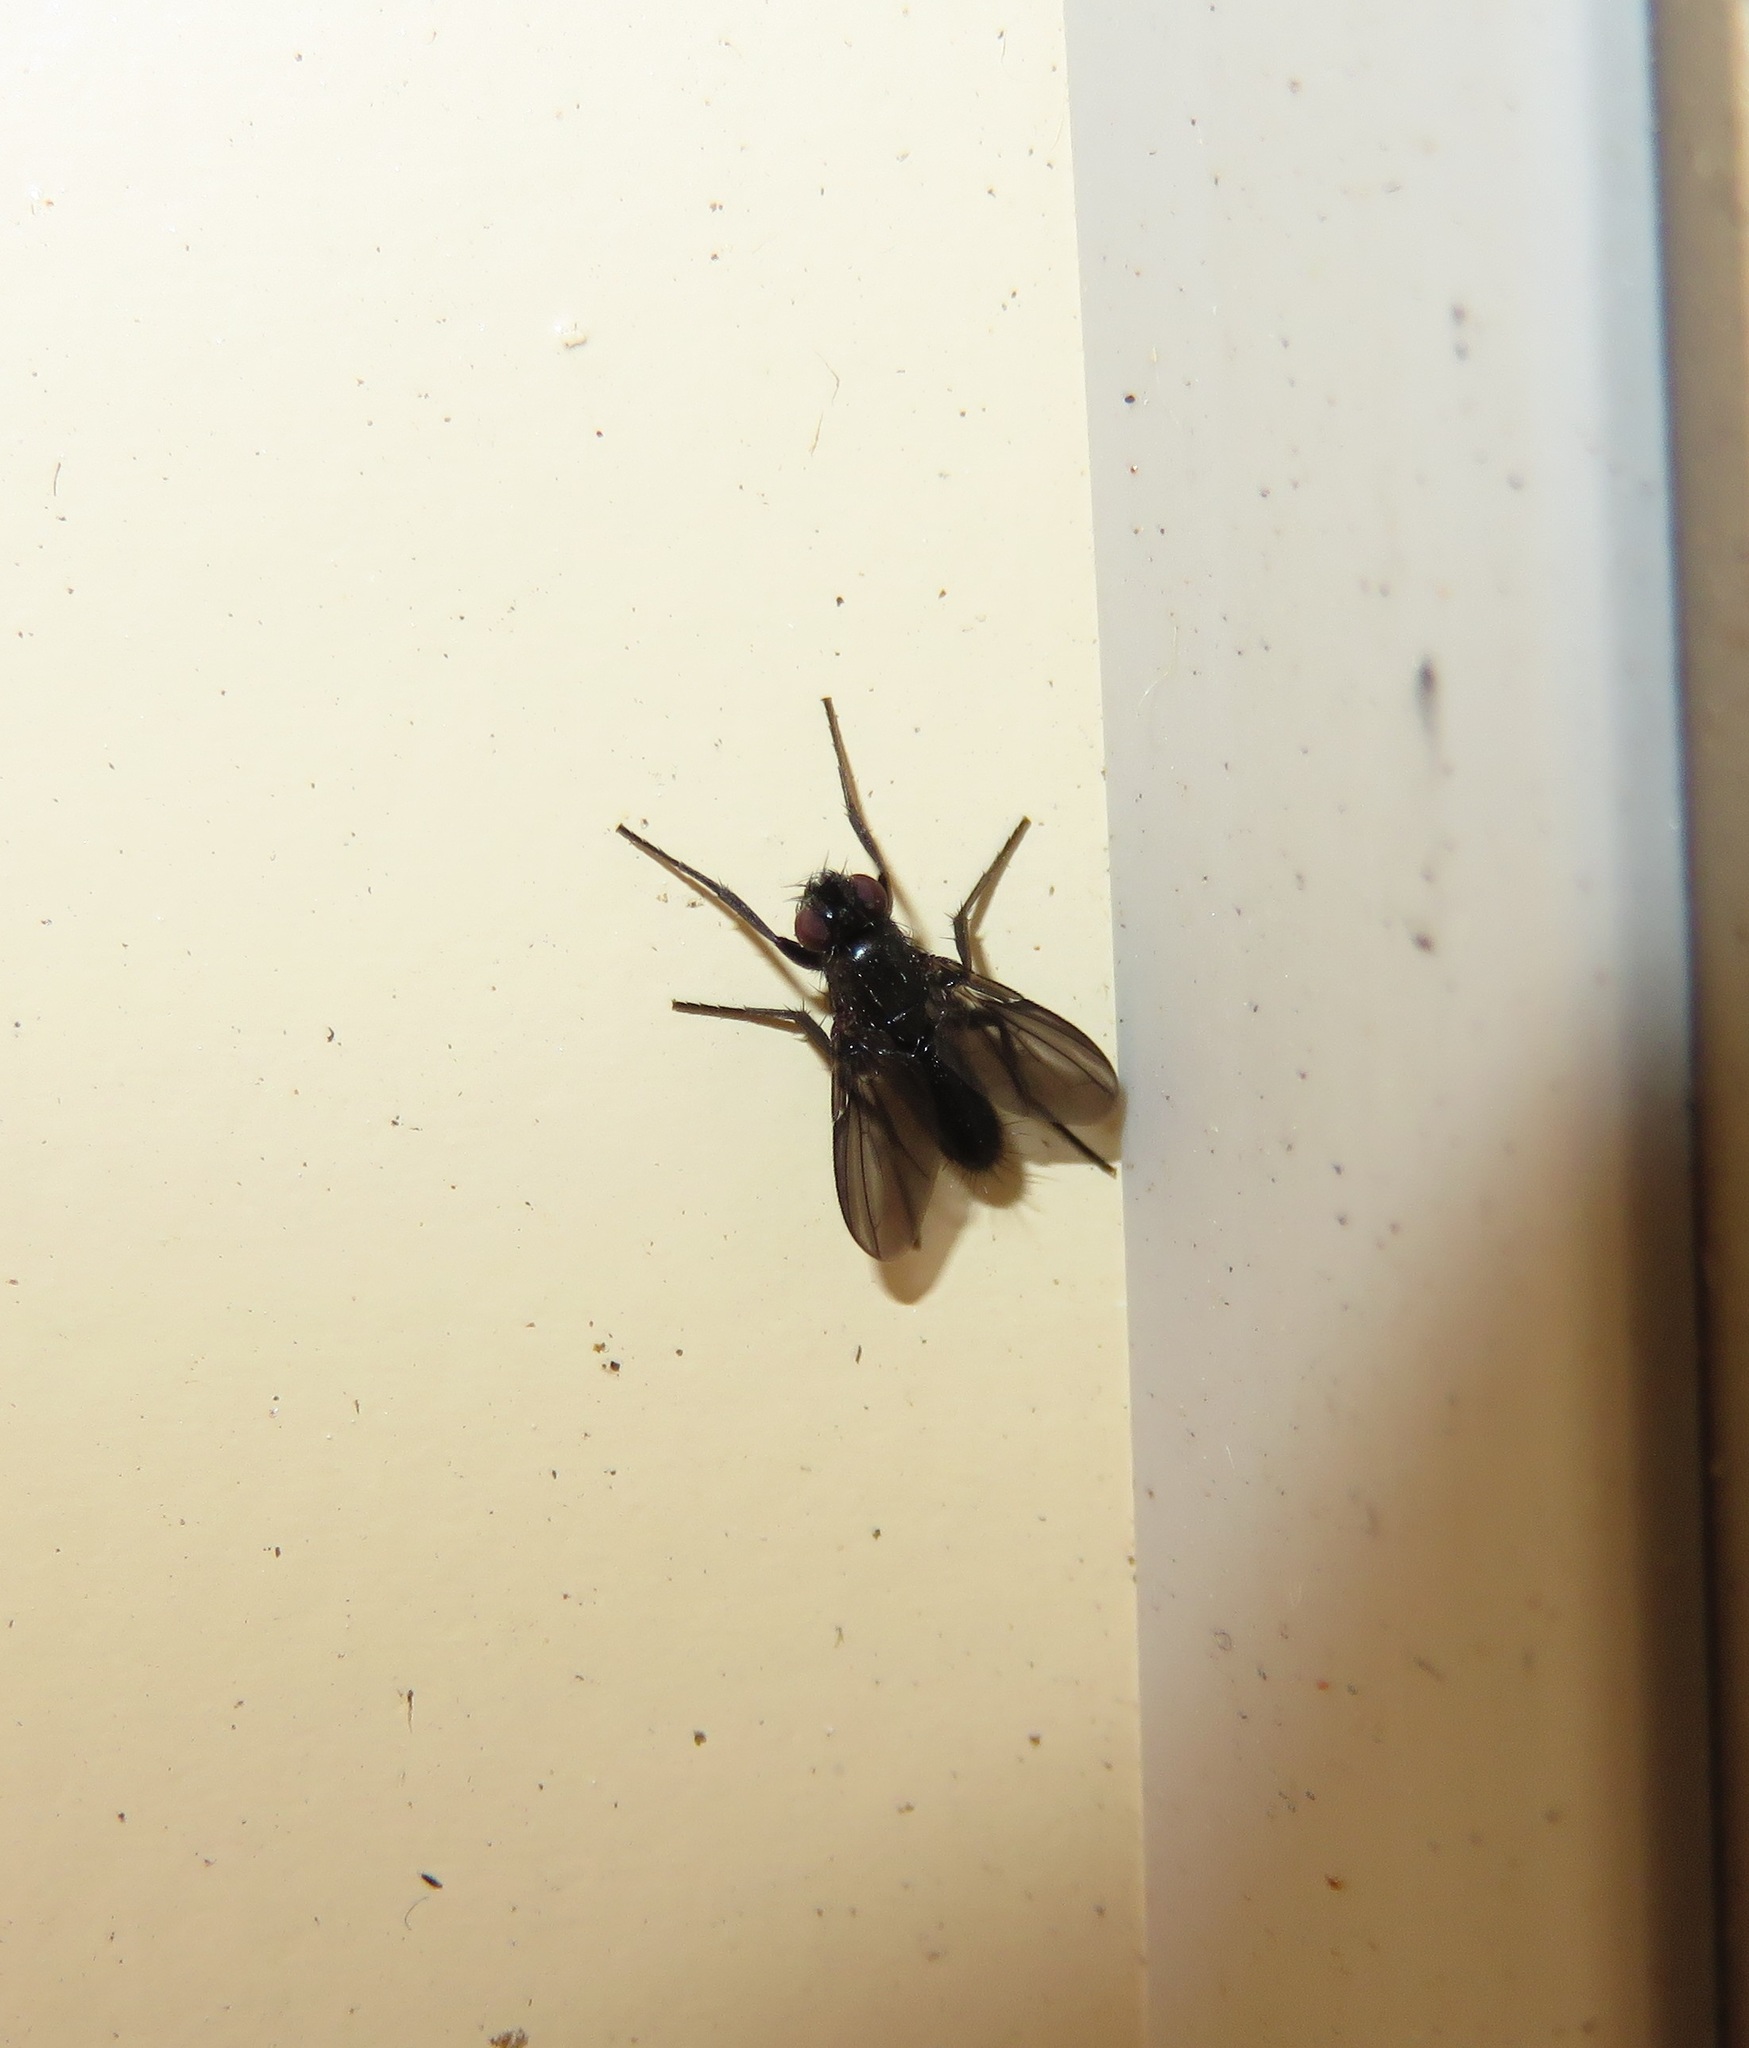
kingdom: Animalia
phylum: Arthropoda
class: Insecta
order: Diptera
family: Calliphoridae
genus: Melanophora
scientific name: Melanophora roralis
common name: Smoky-winged woodlouse-fly
